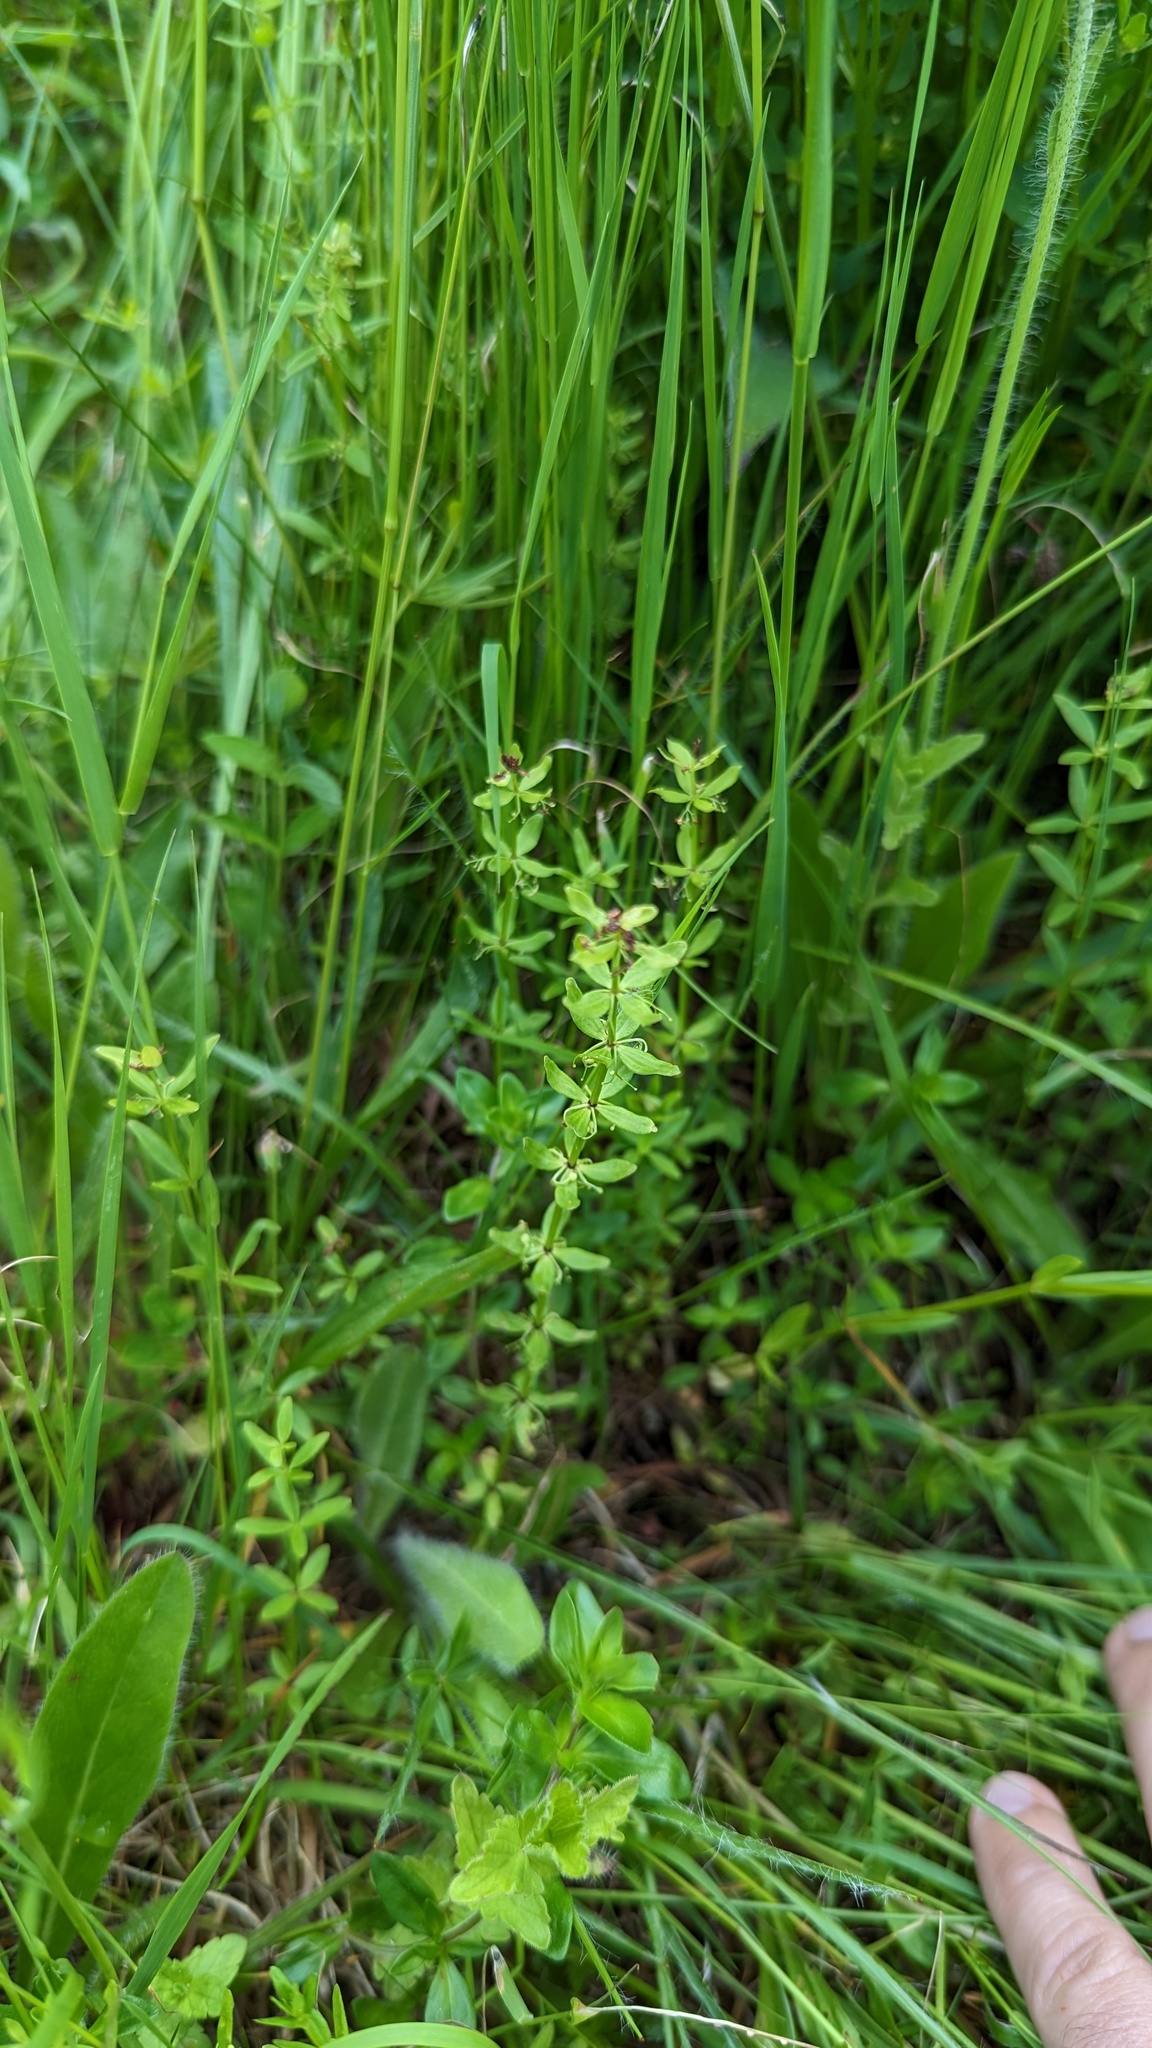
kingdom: Plantae
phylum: Tracheophyta
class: Magnoliopsida
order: Gentianales
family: Rubiaceae
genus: Cruciata
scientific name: Cruciata glabra
